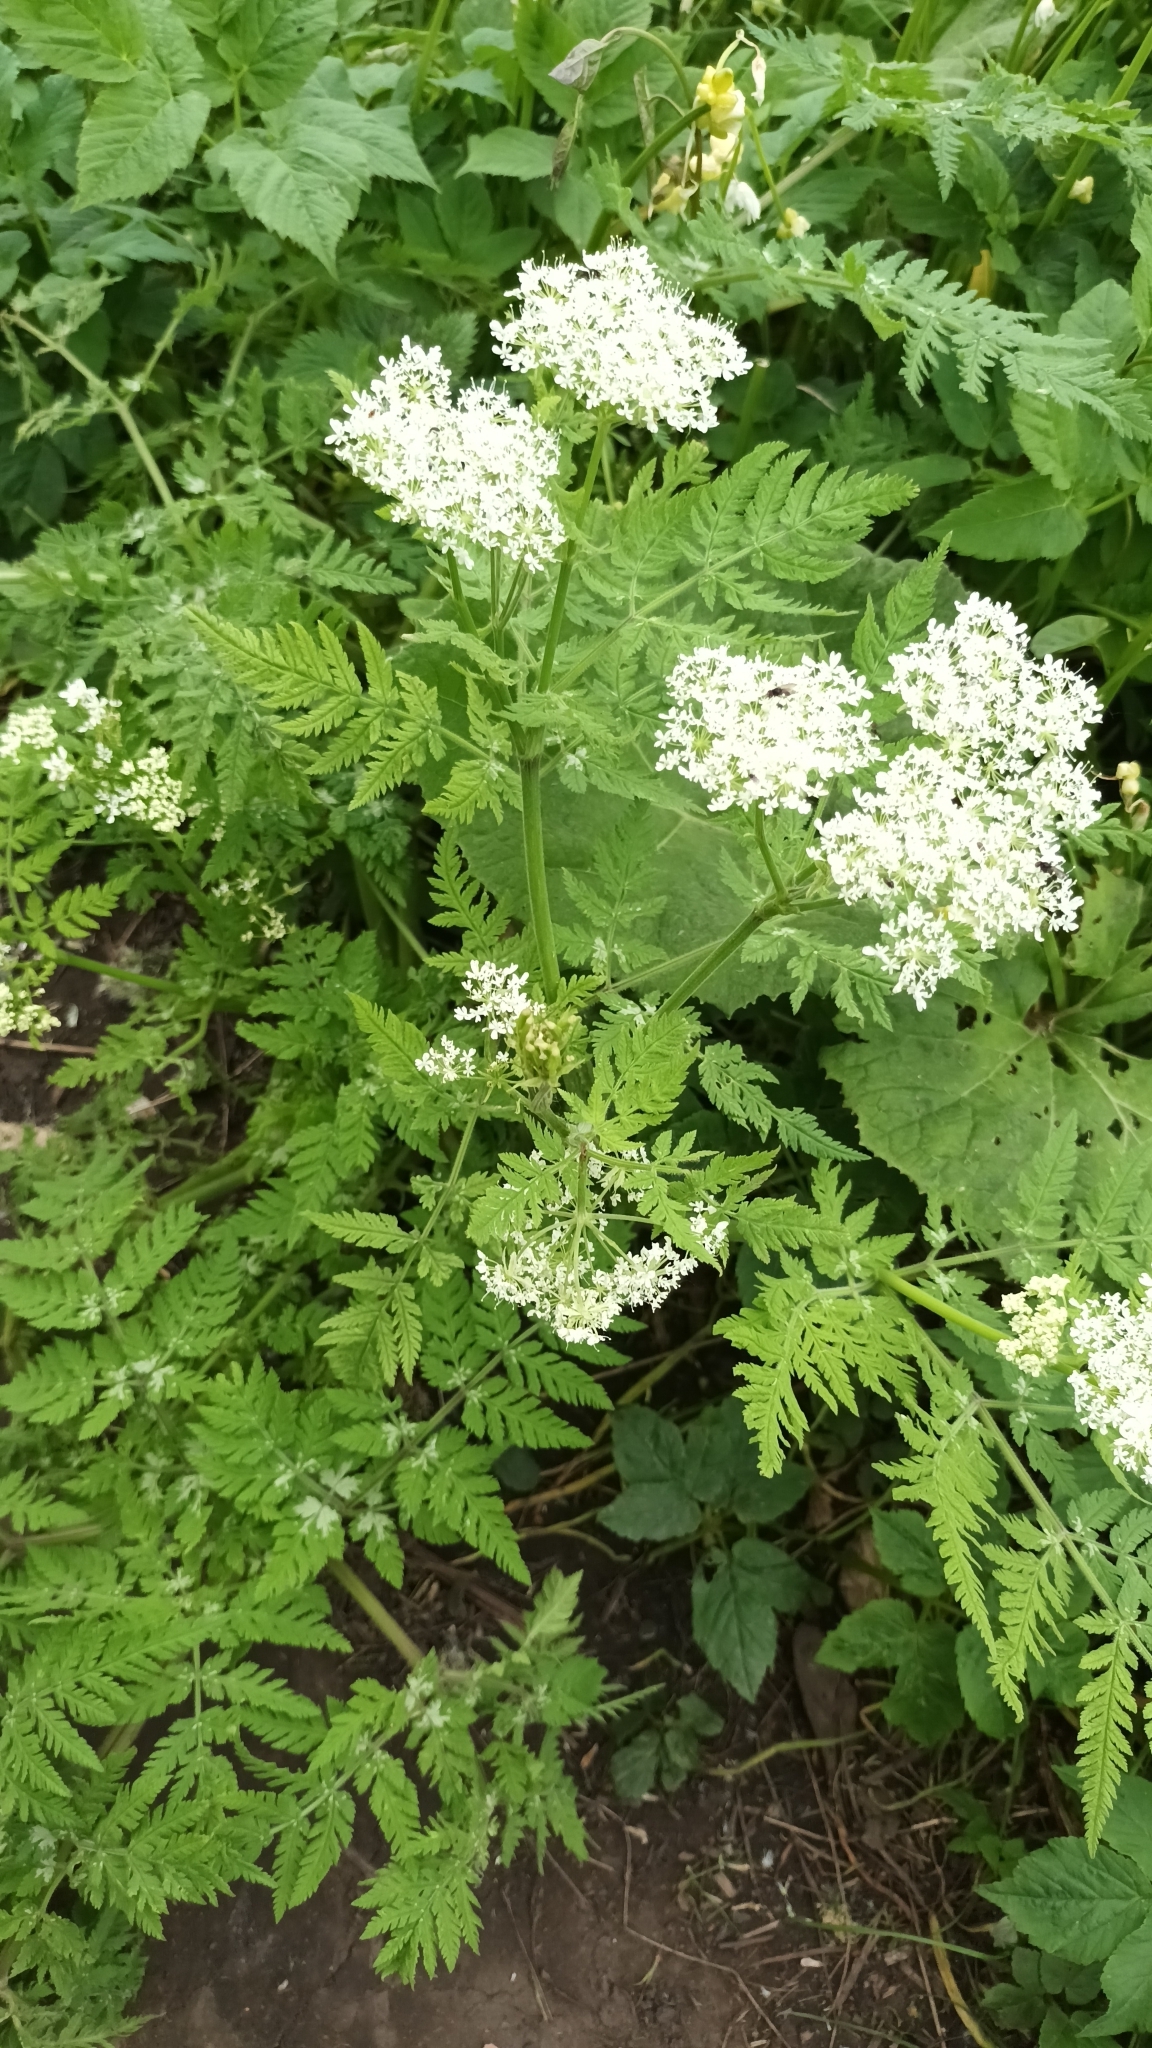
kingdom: Plantae
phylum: Tracheophyta
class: Magnoliopsida
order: Apiales
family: Apiaceae
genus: Myrrhis
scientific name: Myrrhis odorata
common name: Sweet cicely
